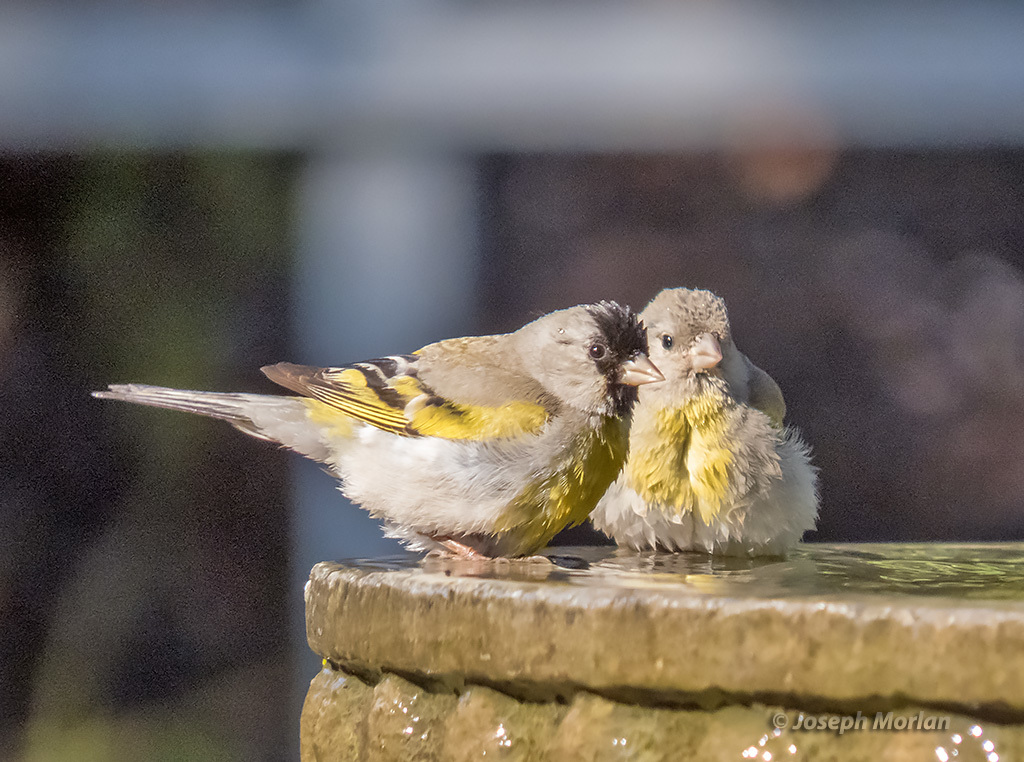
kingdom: Animalia
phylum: Chordata
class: Aves
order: Passeriformes
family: Fringillidae
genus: Spinus
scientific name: Spinus lawrencei
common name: Lawrence's goldfinch
